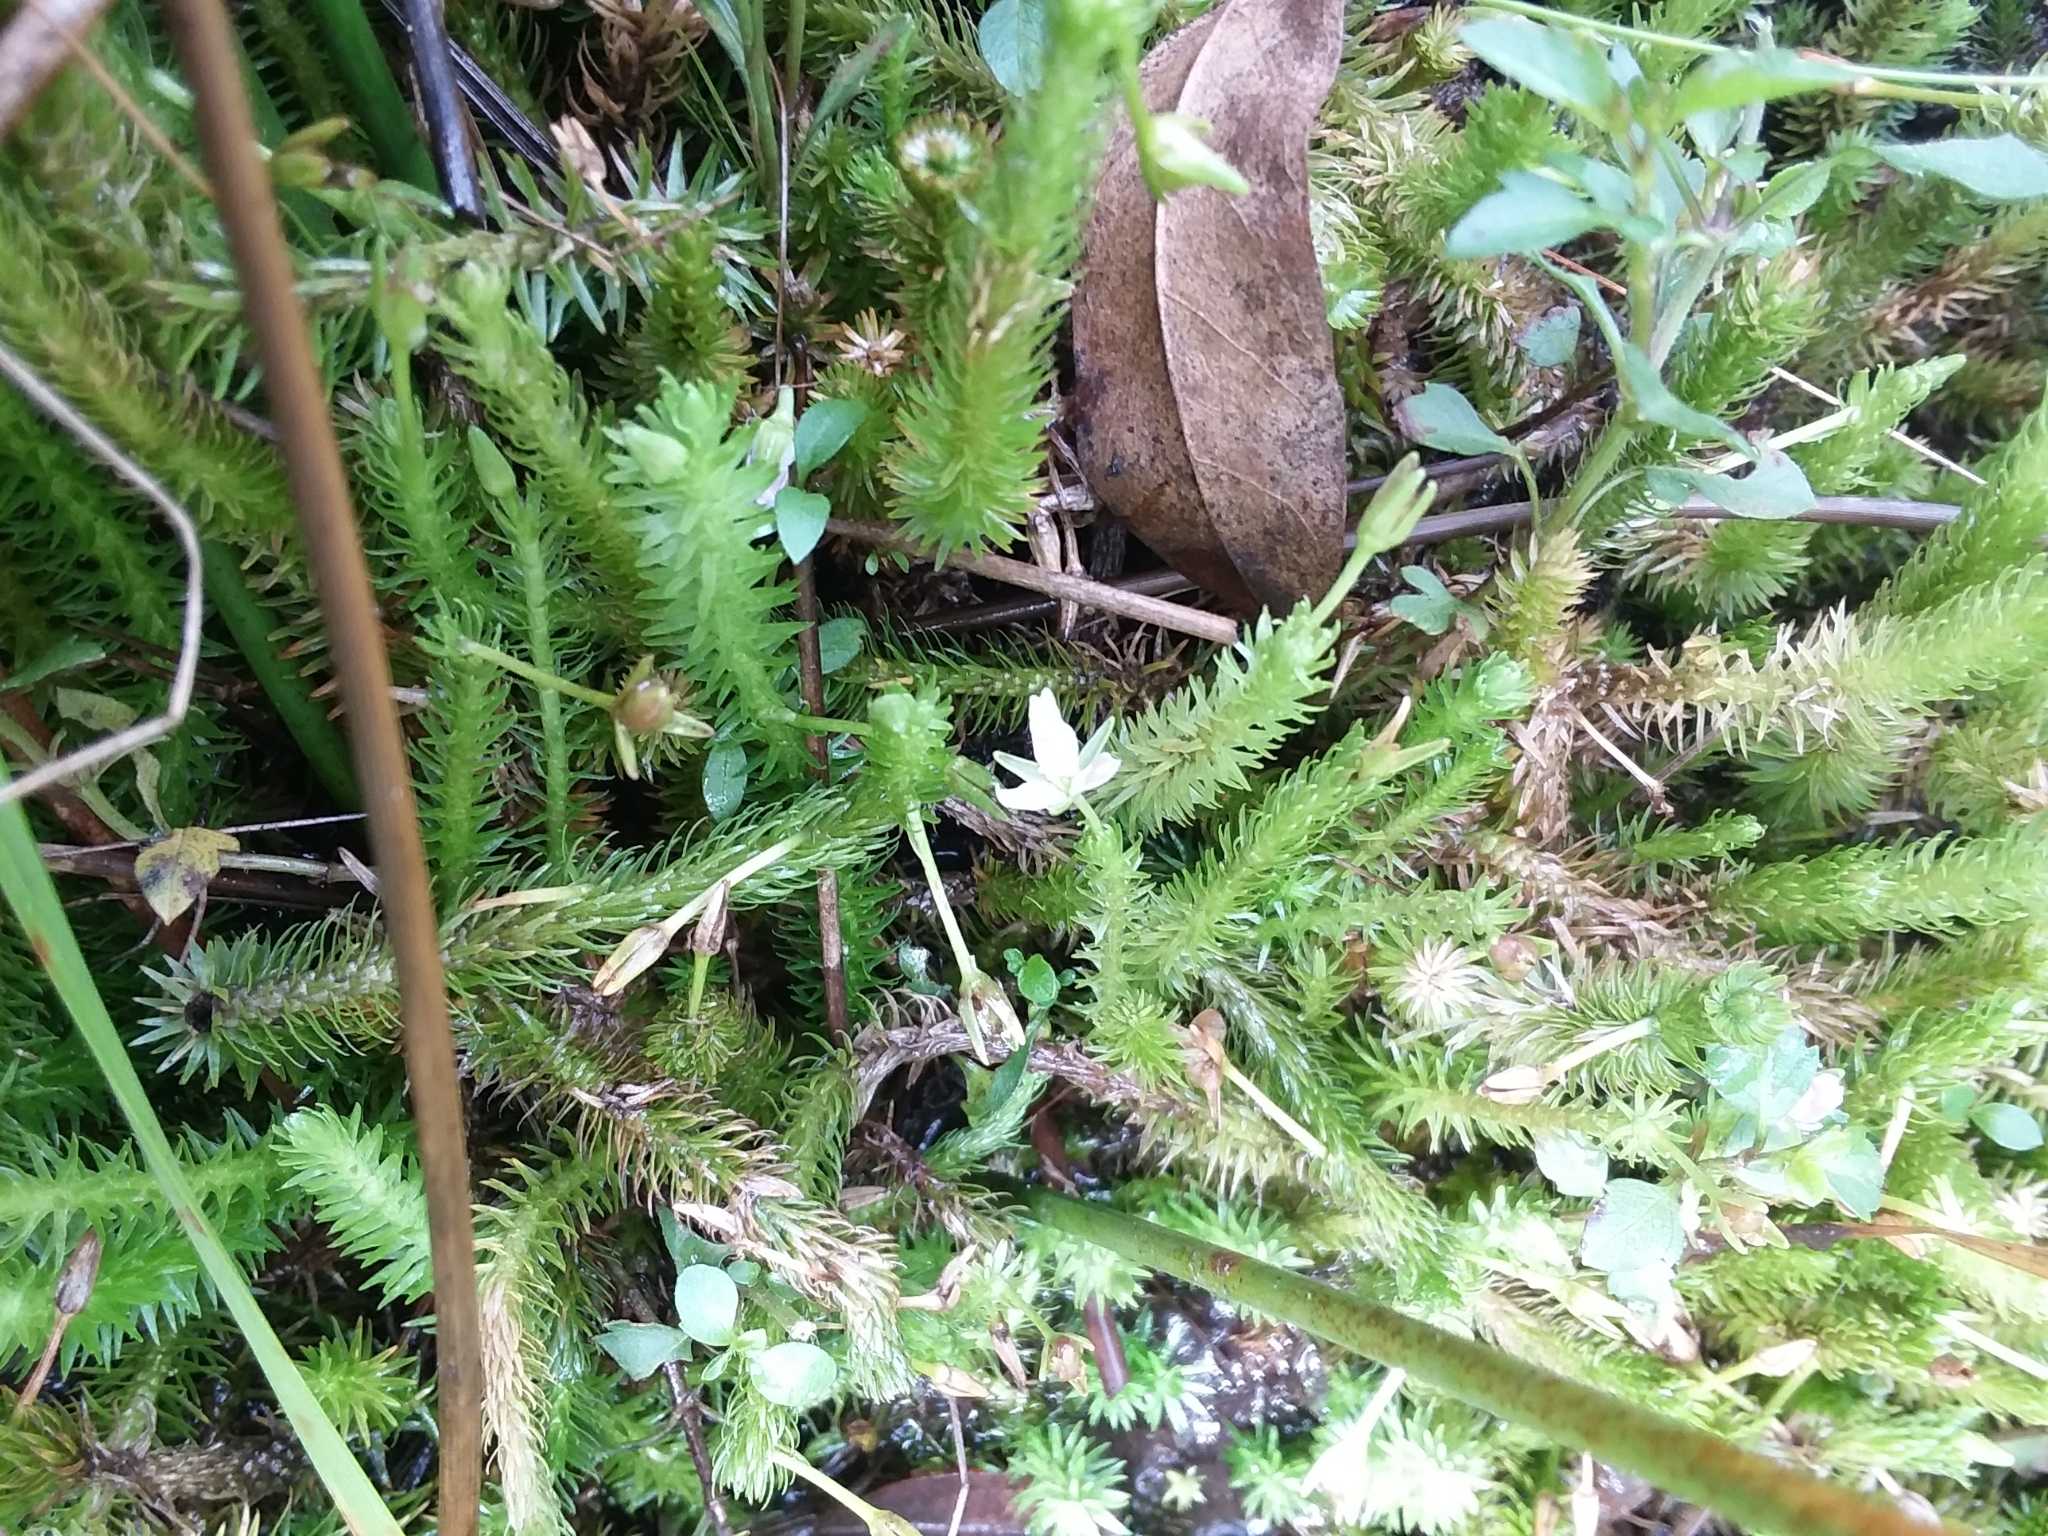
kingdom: Plantae
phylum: Tracheophyta
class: Liliopsida
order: Poales
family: Mayacaceae
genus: Mayaca
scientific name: Mayaca fluviatilis
